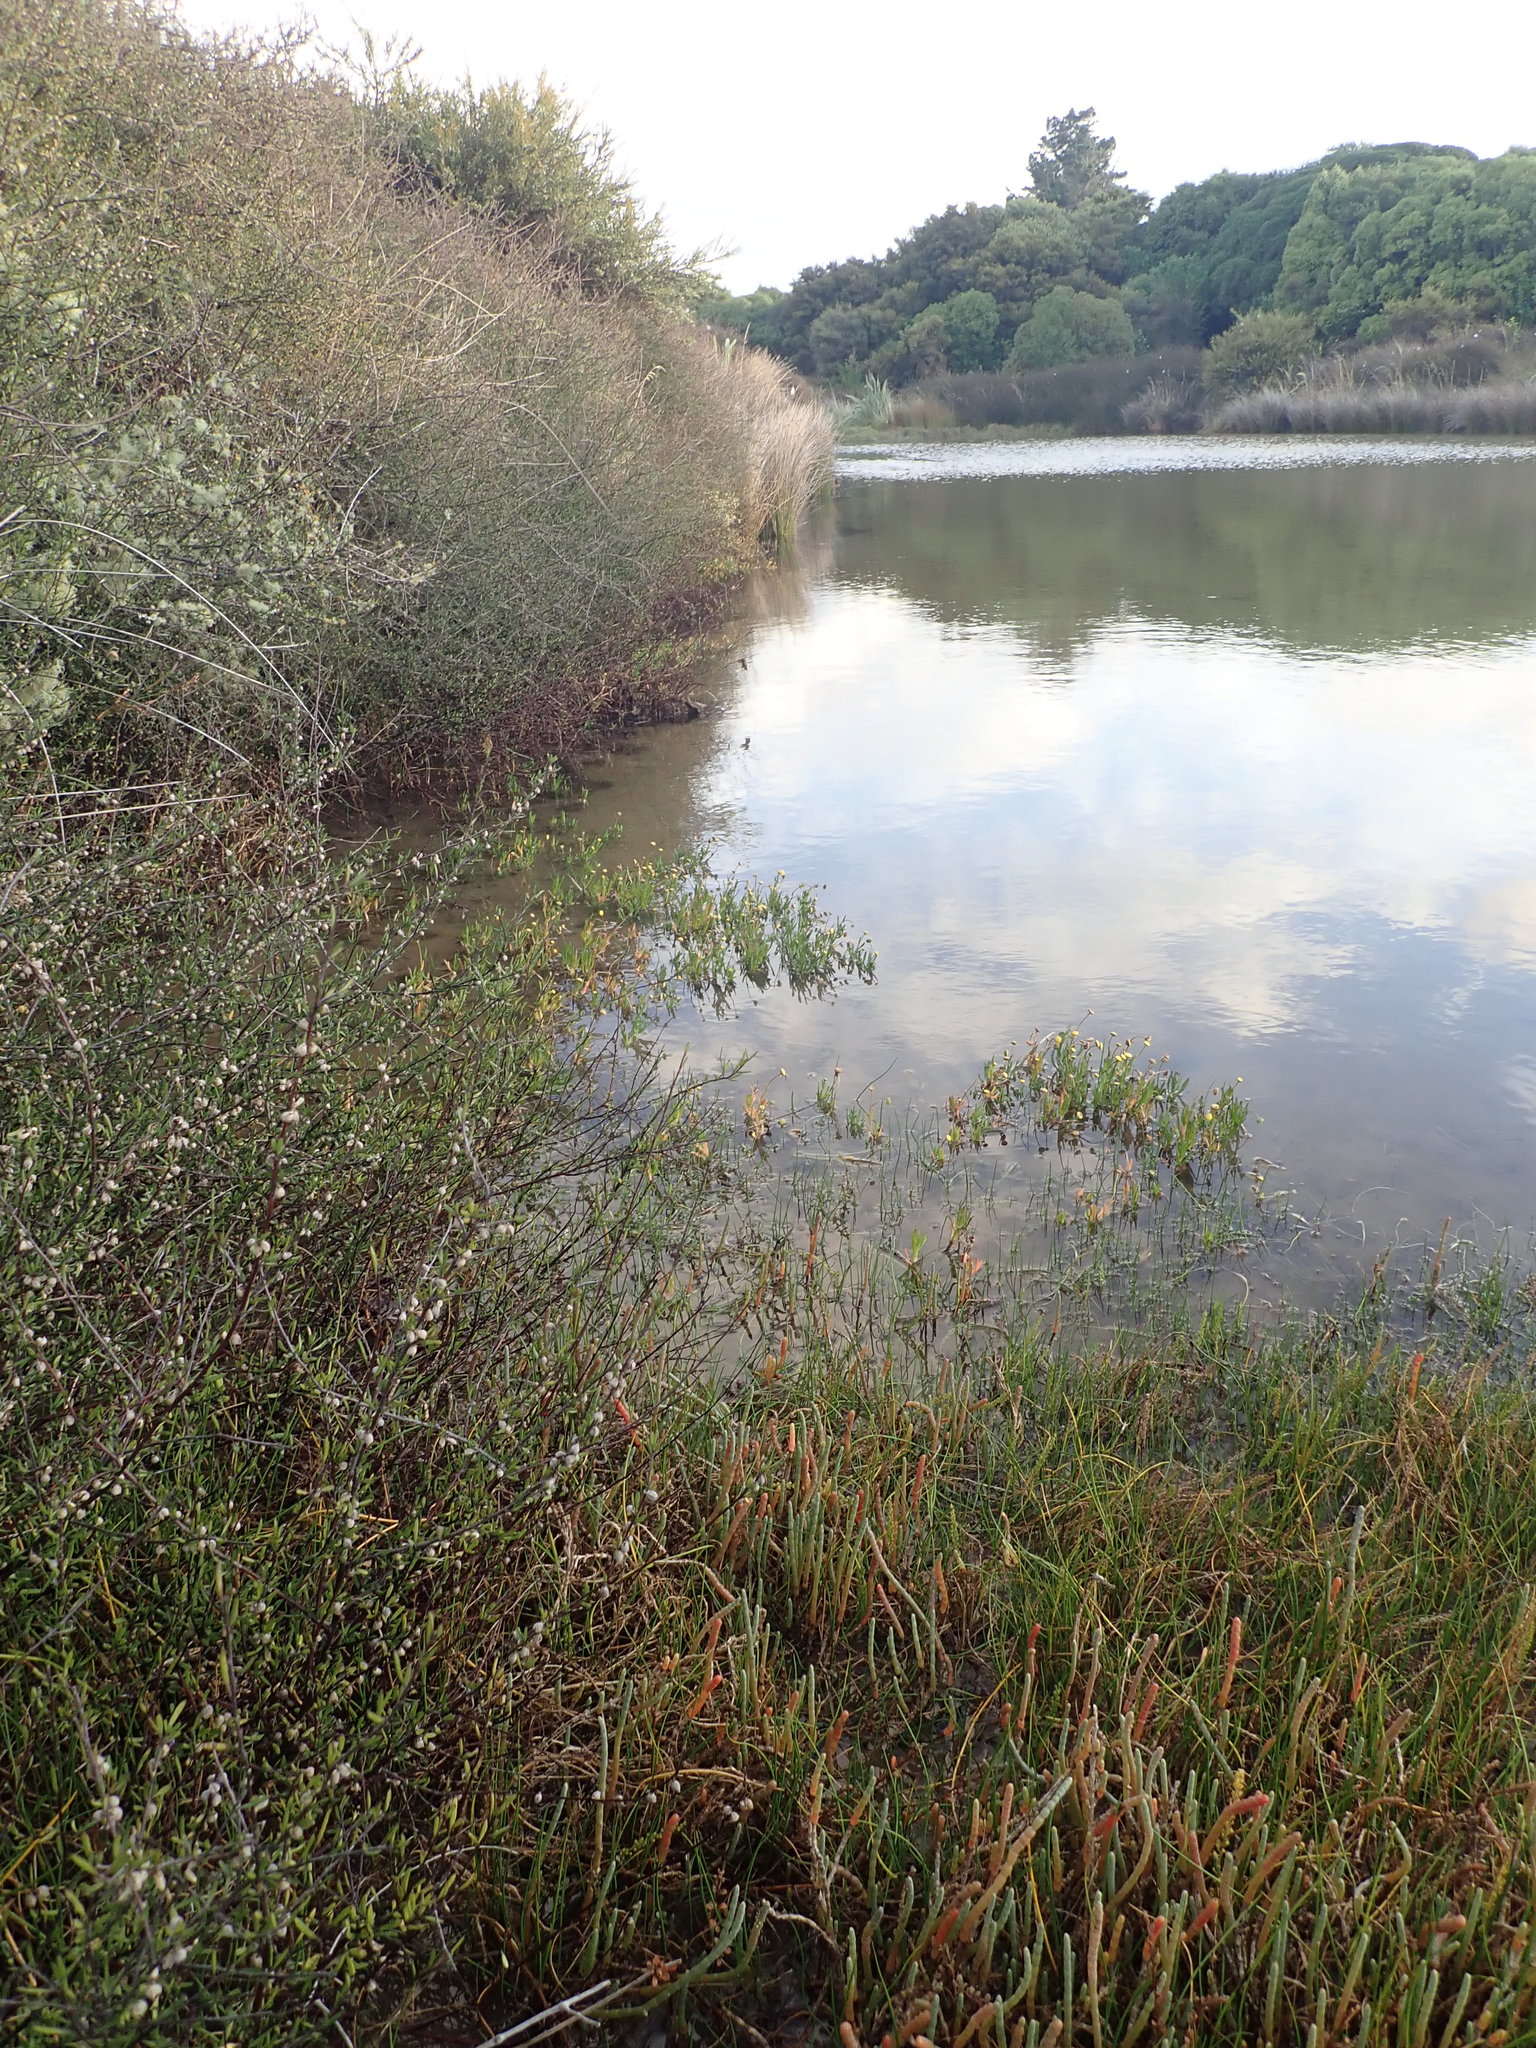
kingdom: Plantae
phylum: Tracheophyta
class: Magnoliopsida
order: Asterales
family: Asteraceae
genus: Cotula
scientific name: Cotula coronopifolia
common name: Buttonweed
